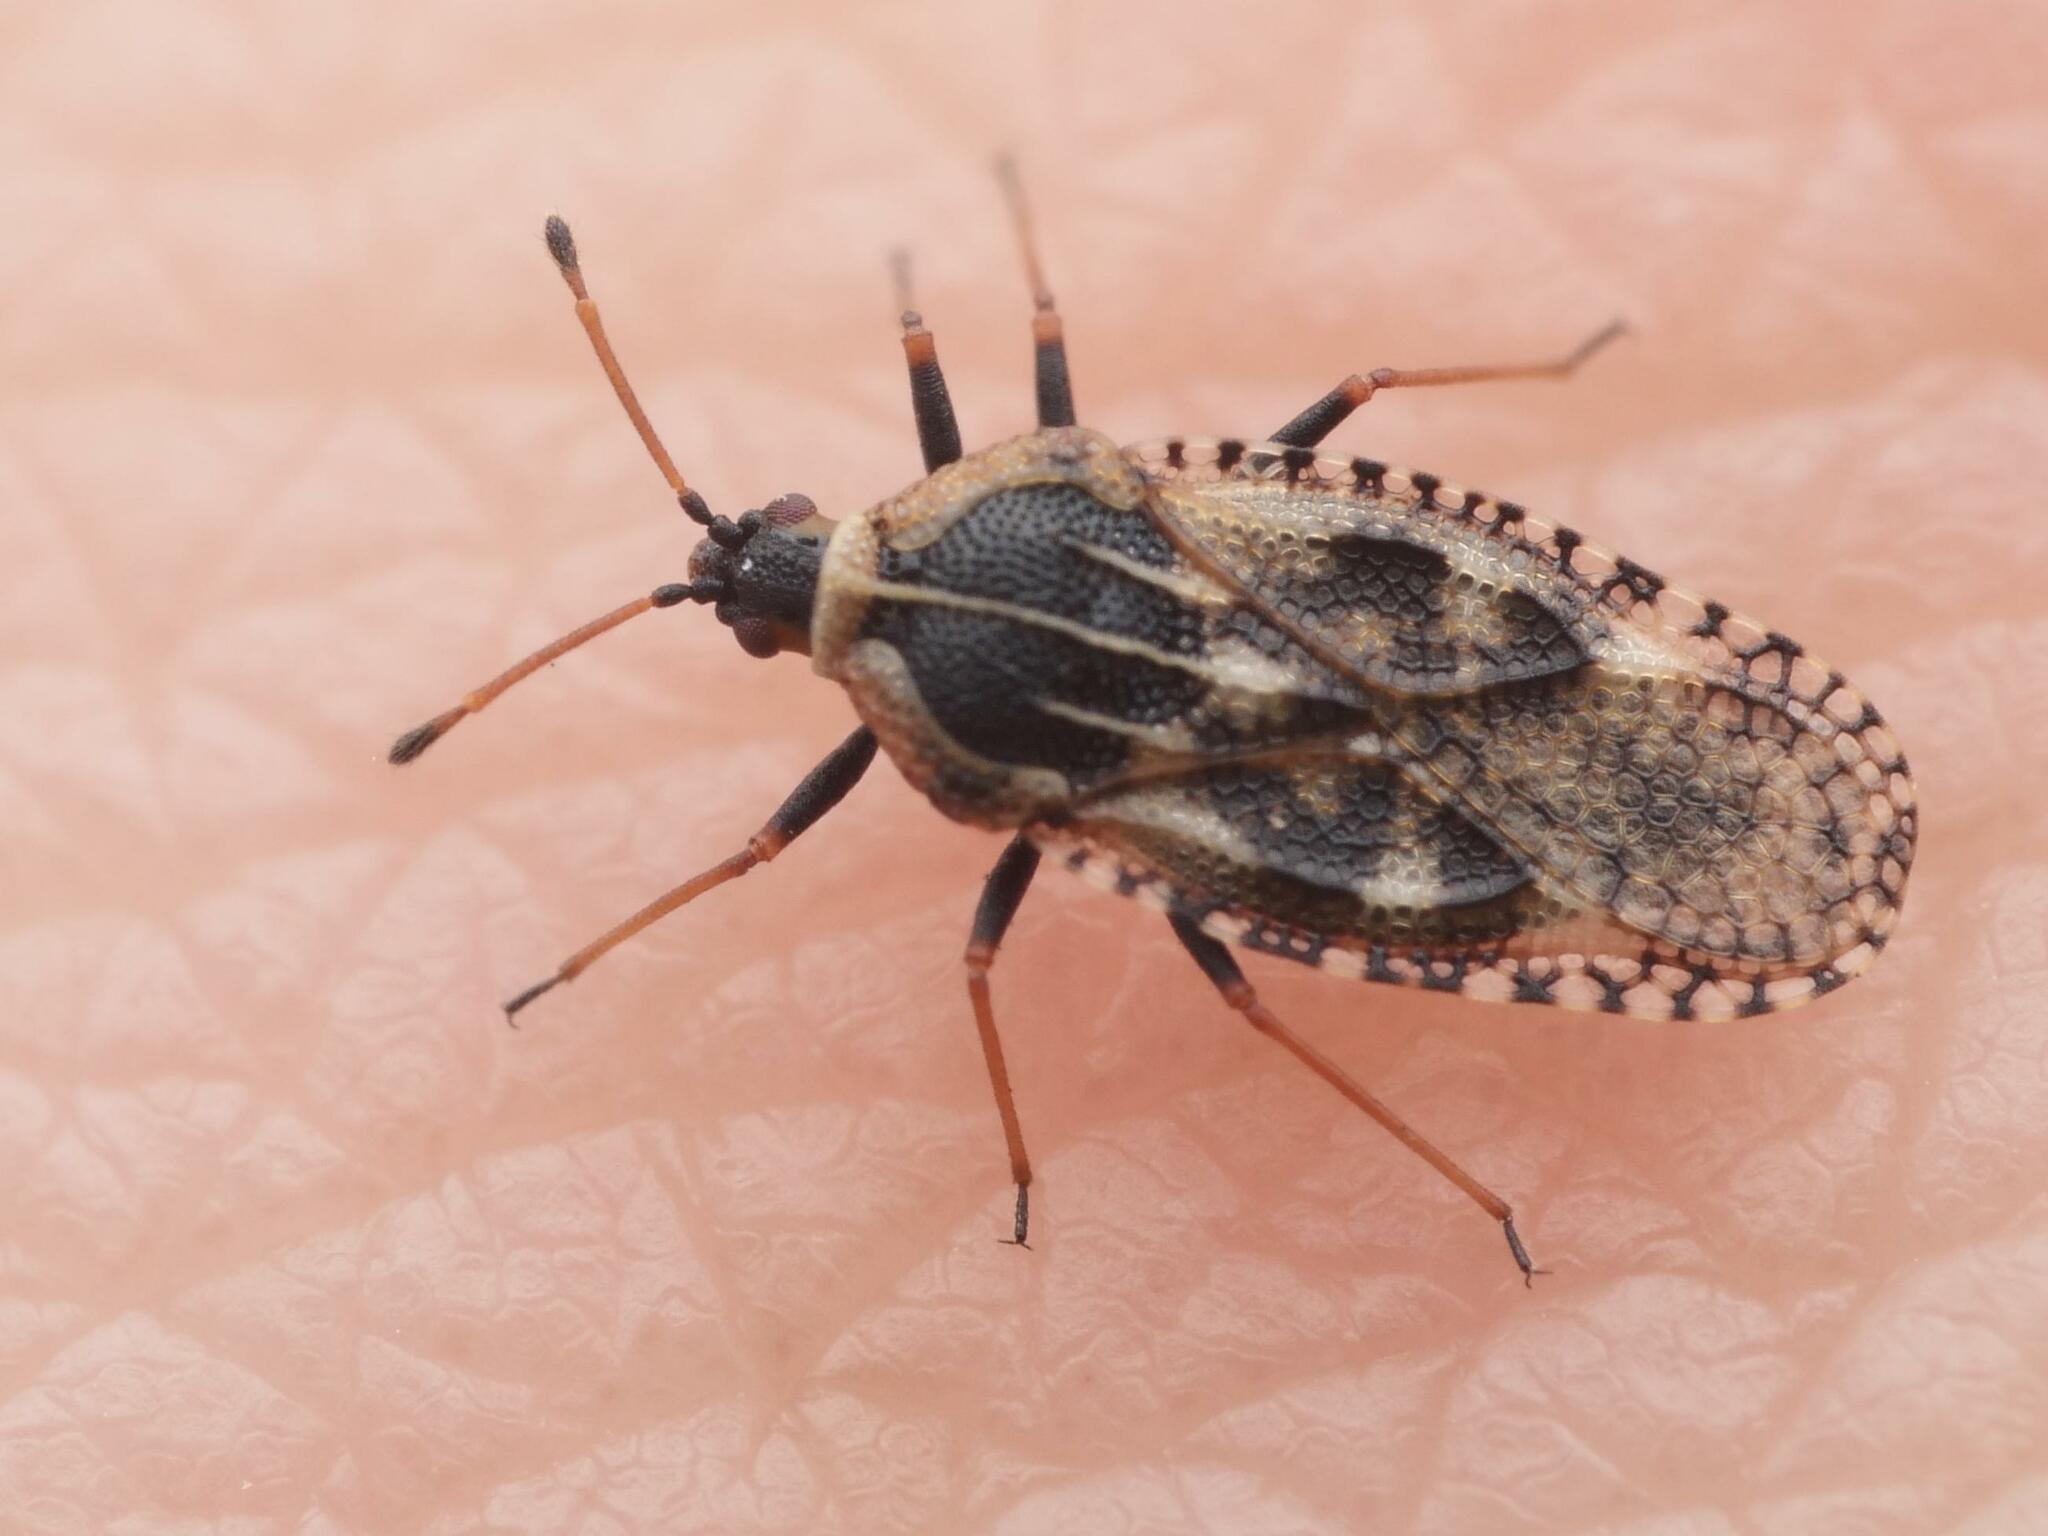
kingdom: Animalia
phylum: Arthropoda
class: Insecta
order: Hemiptera
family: Tingidae
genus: Dictyla
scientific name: Dictyla echii
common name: Lace bug
